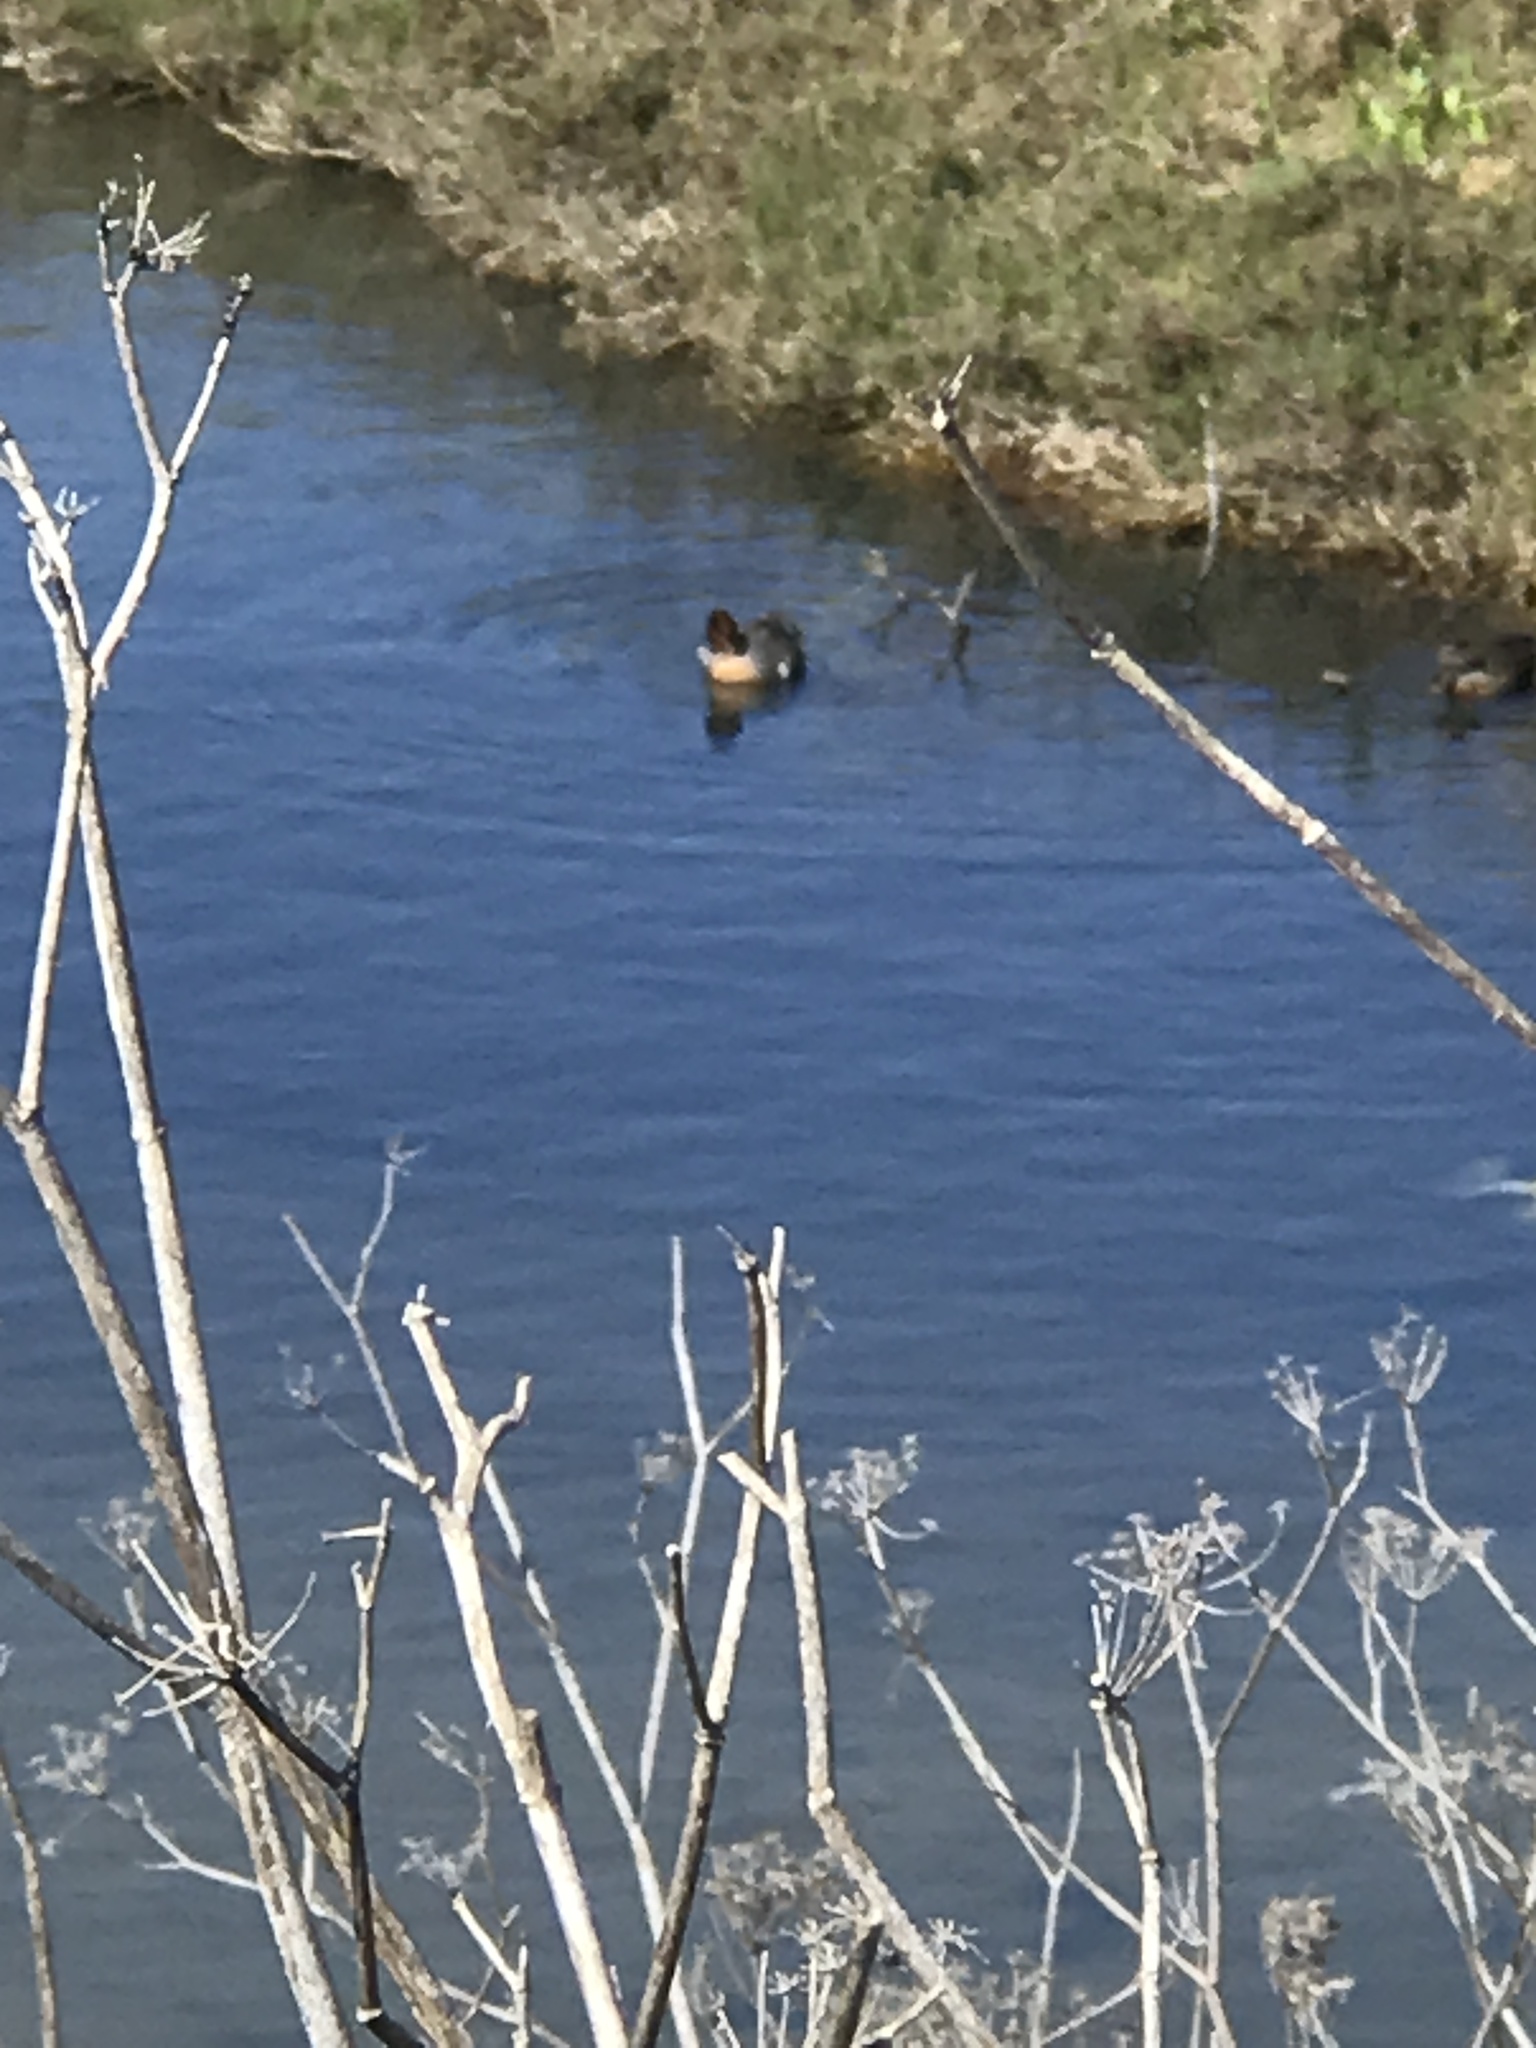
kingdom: Animalia
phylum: Chordata
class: Aves
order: Anseriformes
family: Anatidae
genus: Anas
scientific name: Anas crecca
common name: Eurasian teal
